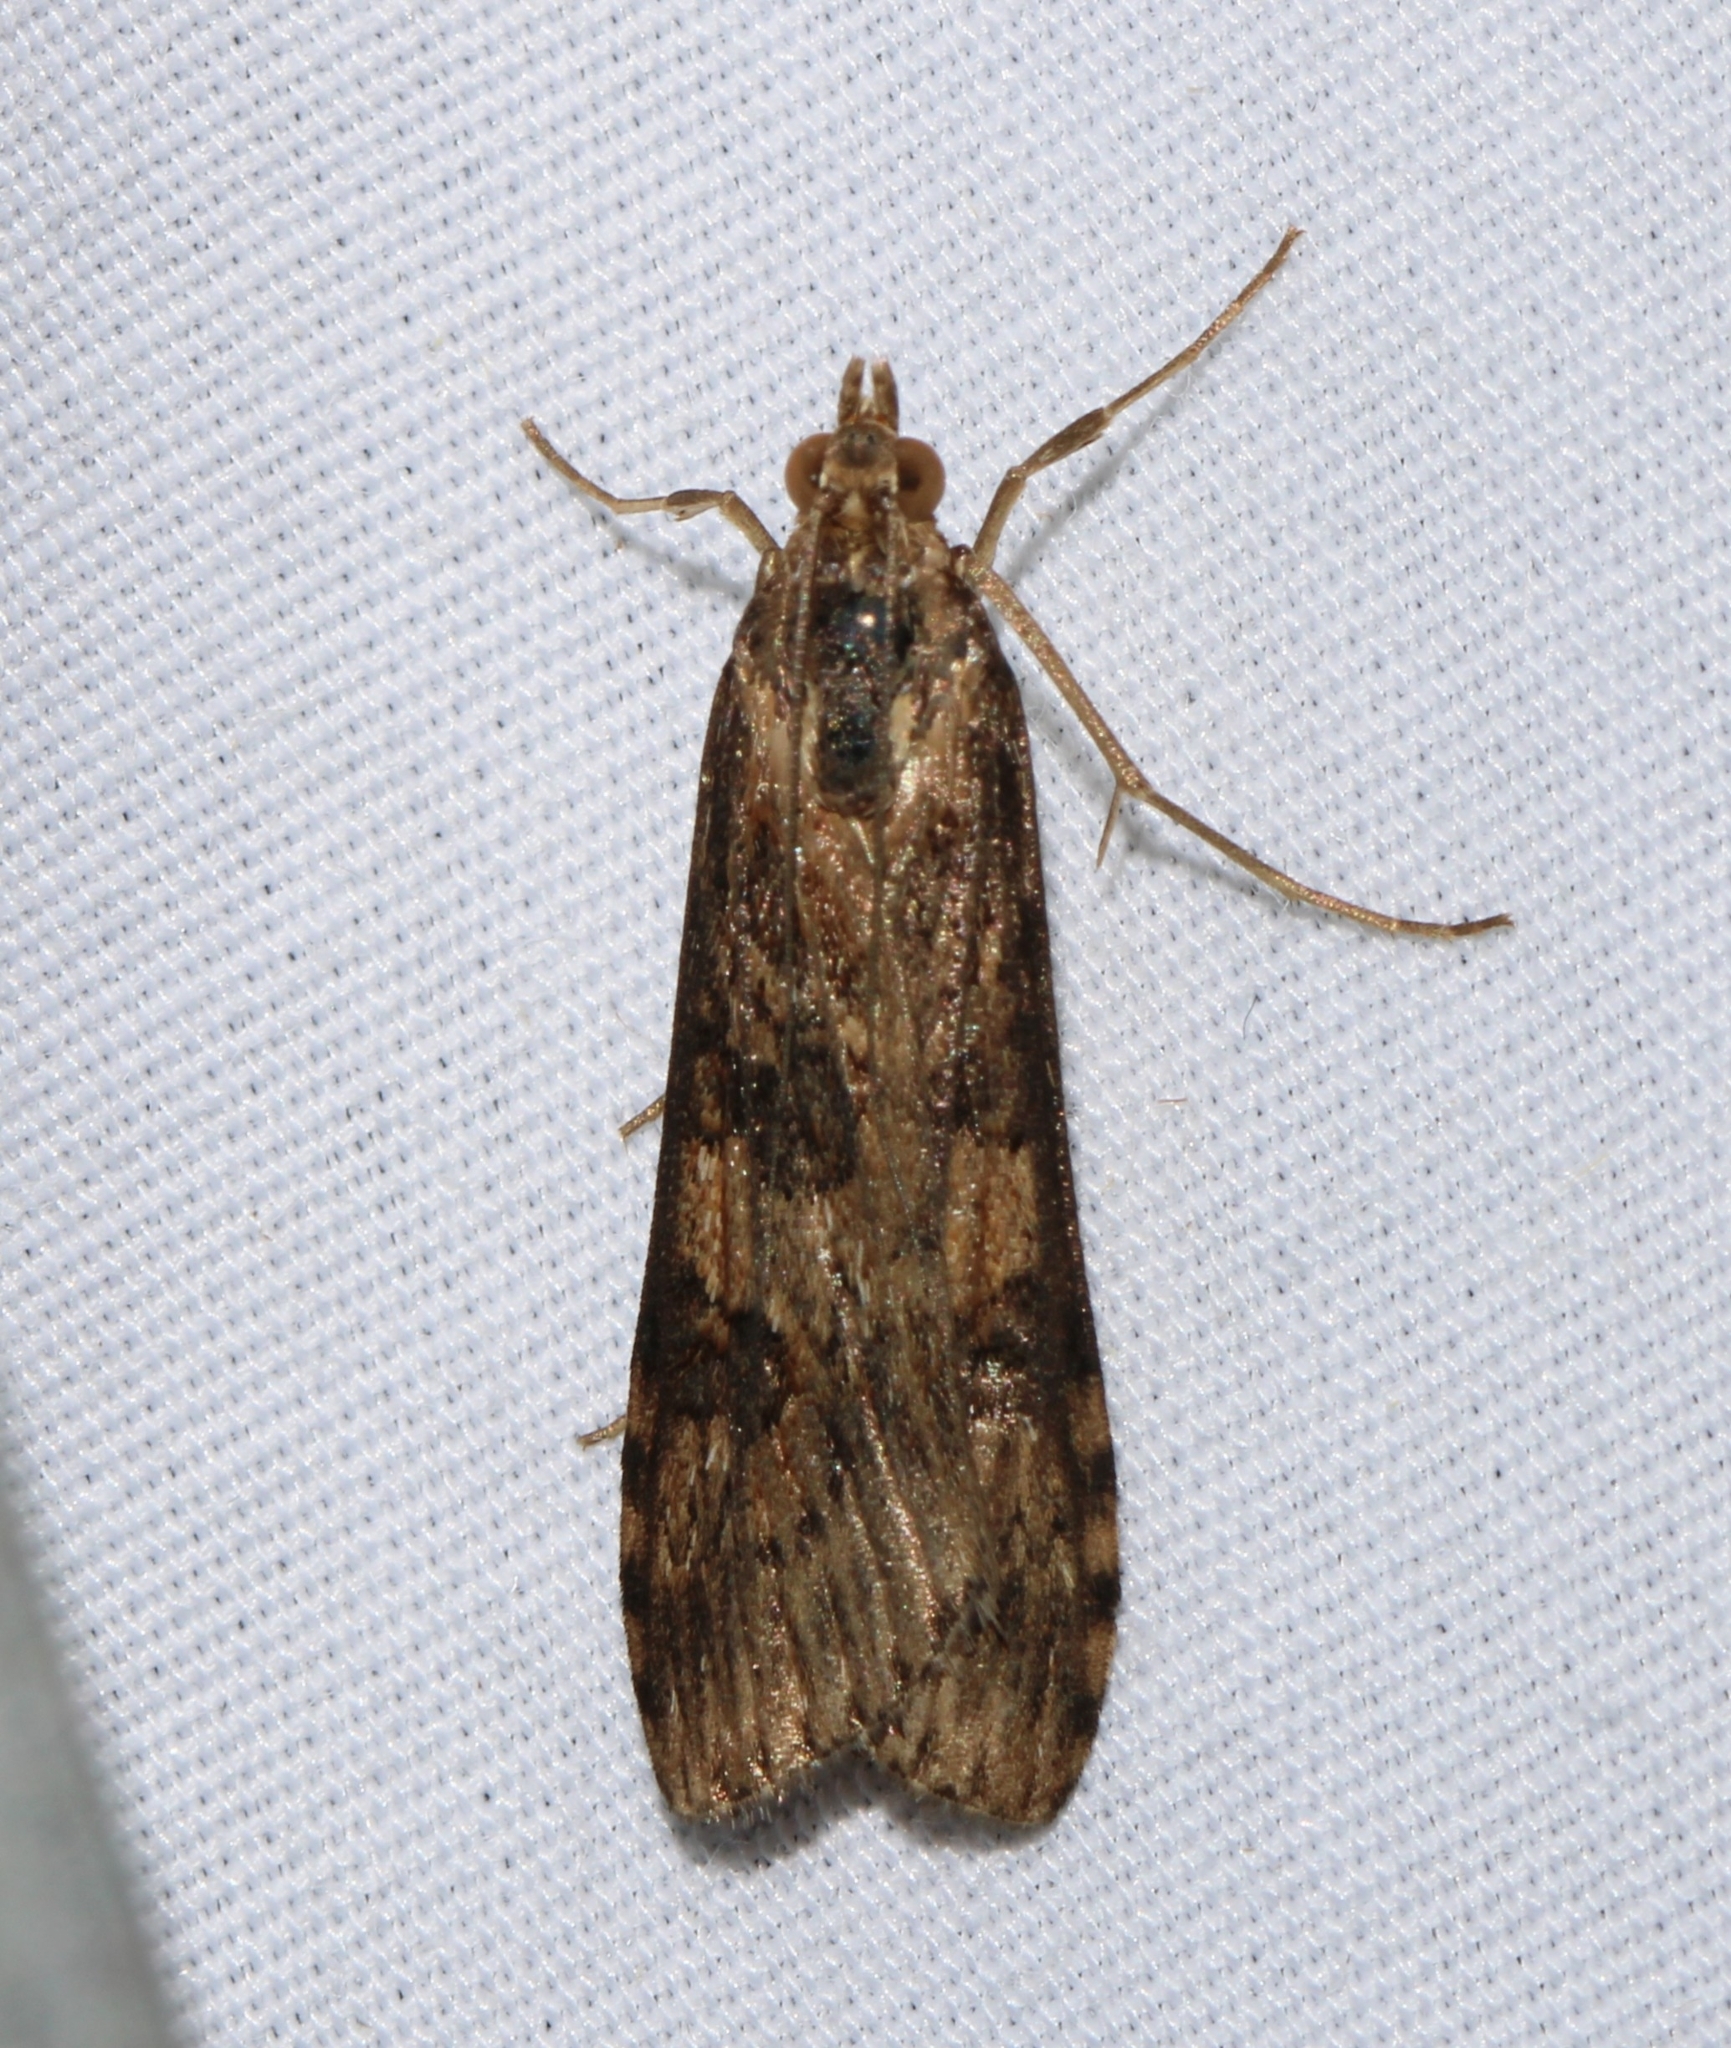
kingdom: Animalia
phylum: Arthropoda
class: Insecta
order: Lepidoptera
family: Crambidae
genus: Nomophila
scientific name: Nomophila nearctica
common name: American rush veneer
